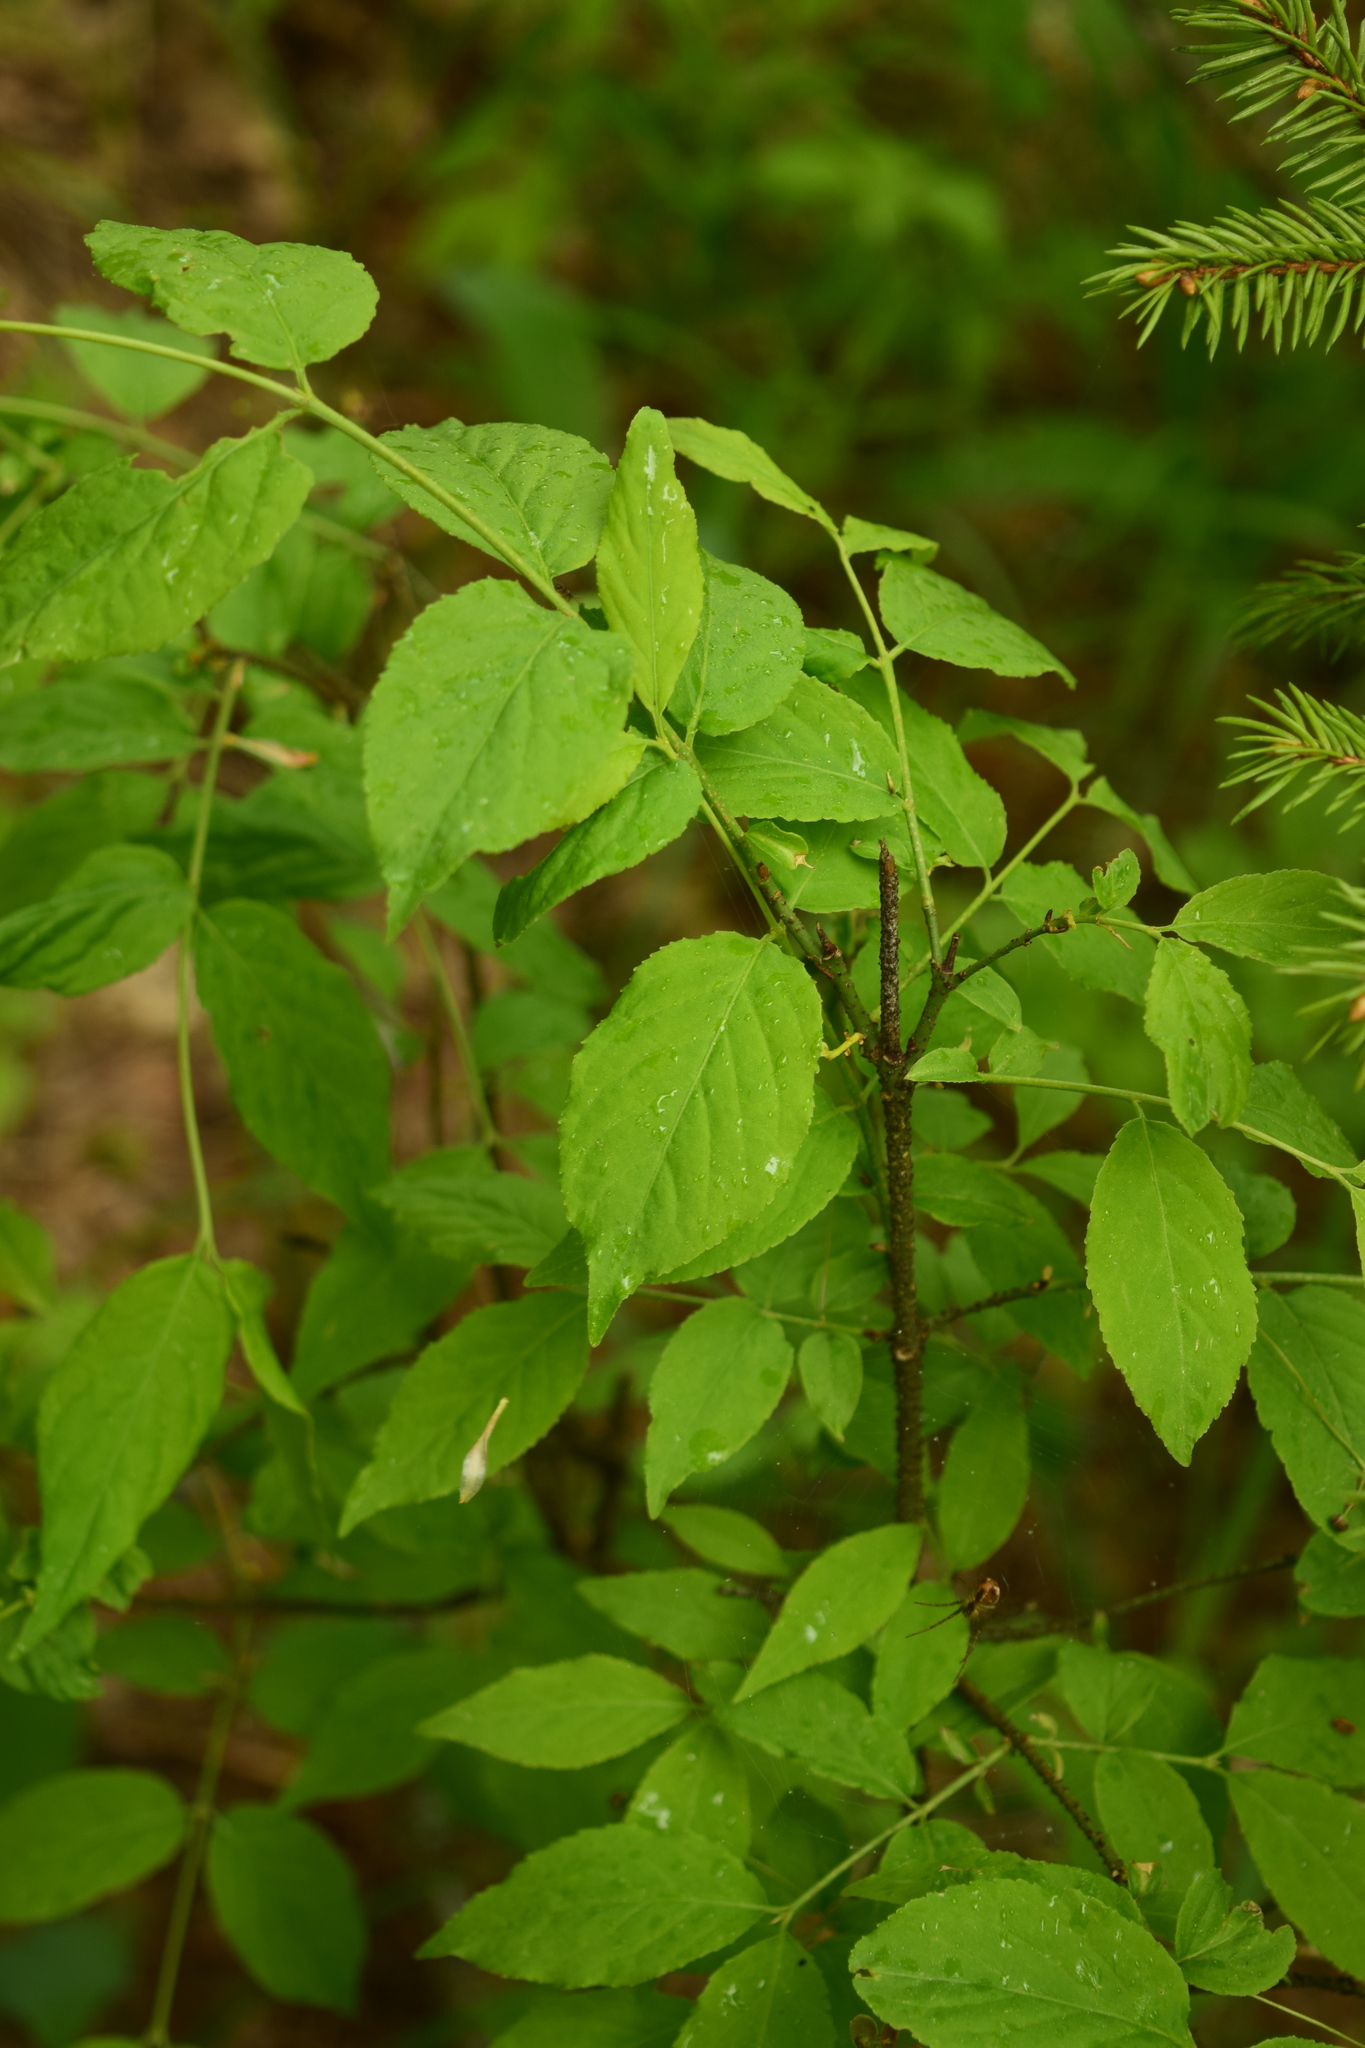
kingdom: Plantae
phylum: Tracheophyta
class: Magnoliopsida
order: Celastrales
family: Celastraceae
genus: Euonymus
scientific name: Euonymus verrucosus
